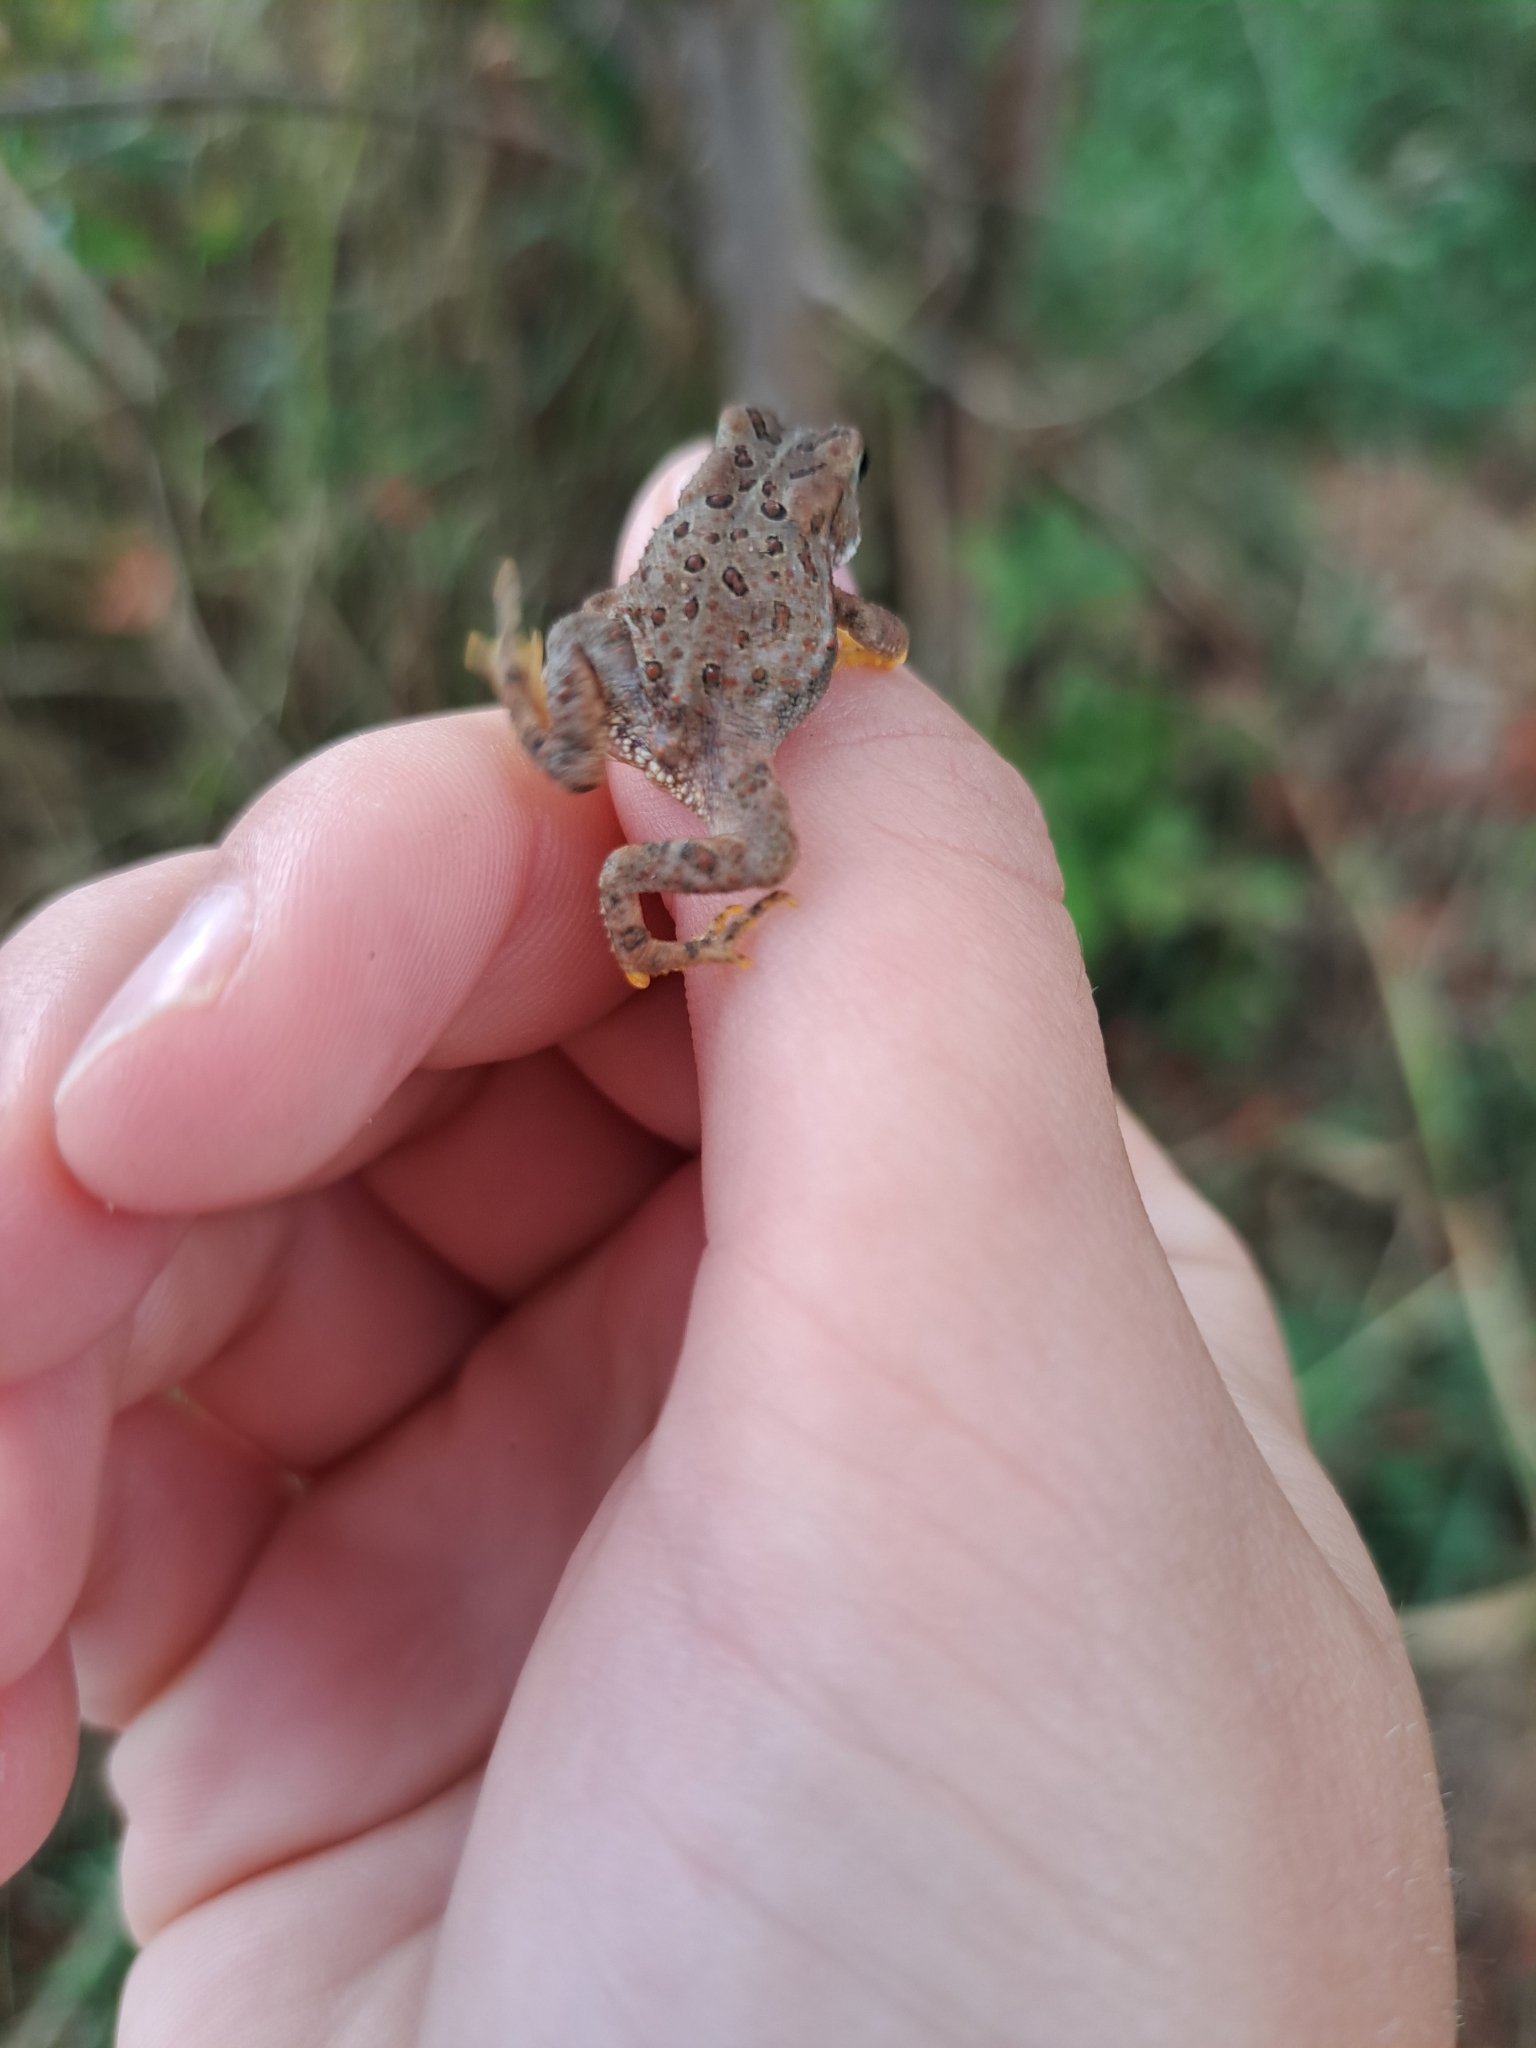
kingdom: Animalia
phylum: Chordata
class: Amphibia
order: Anura
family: Bufonidae
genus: Anaxyrus
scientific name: Anaxyrus americanus
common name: American toad
